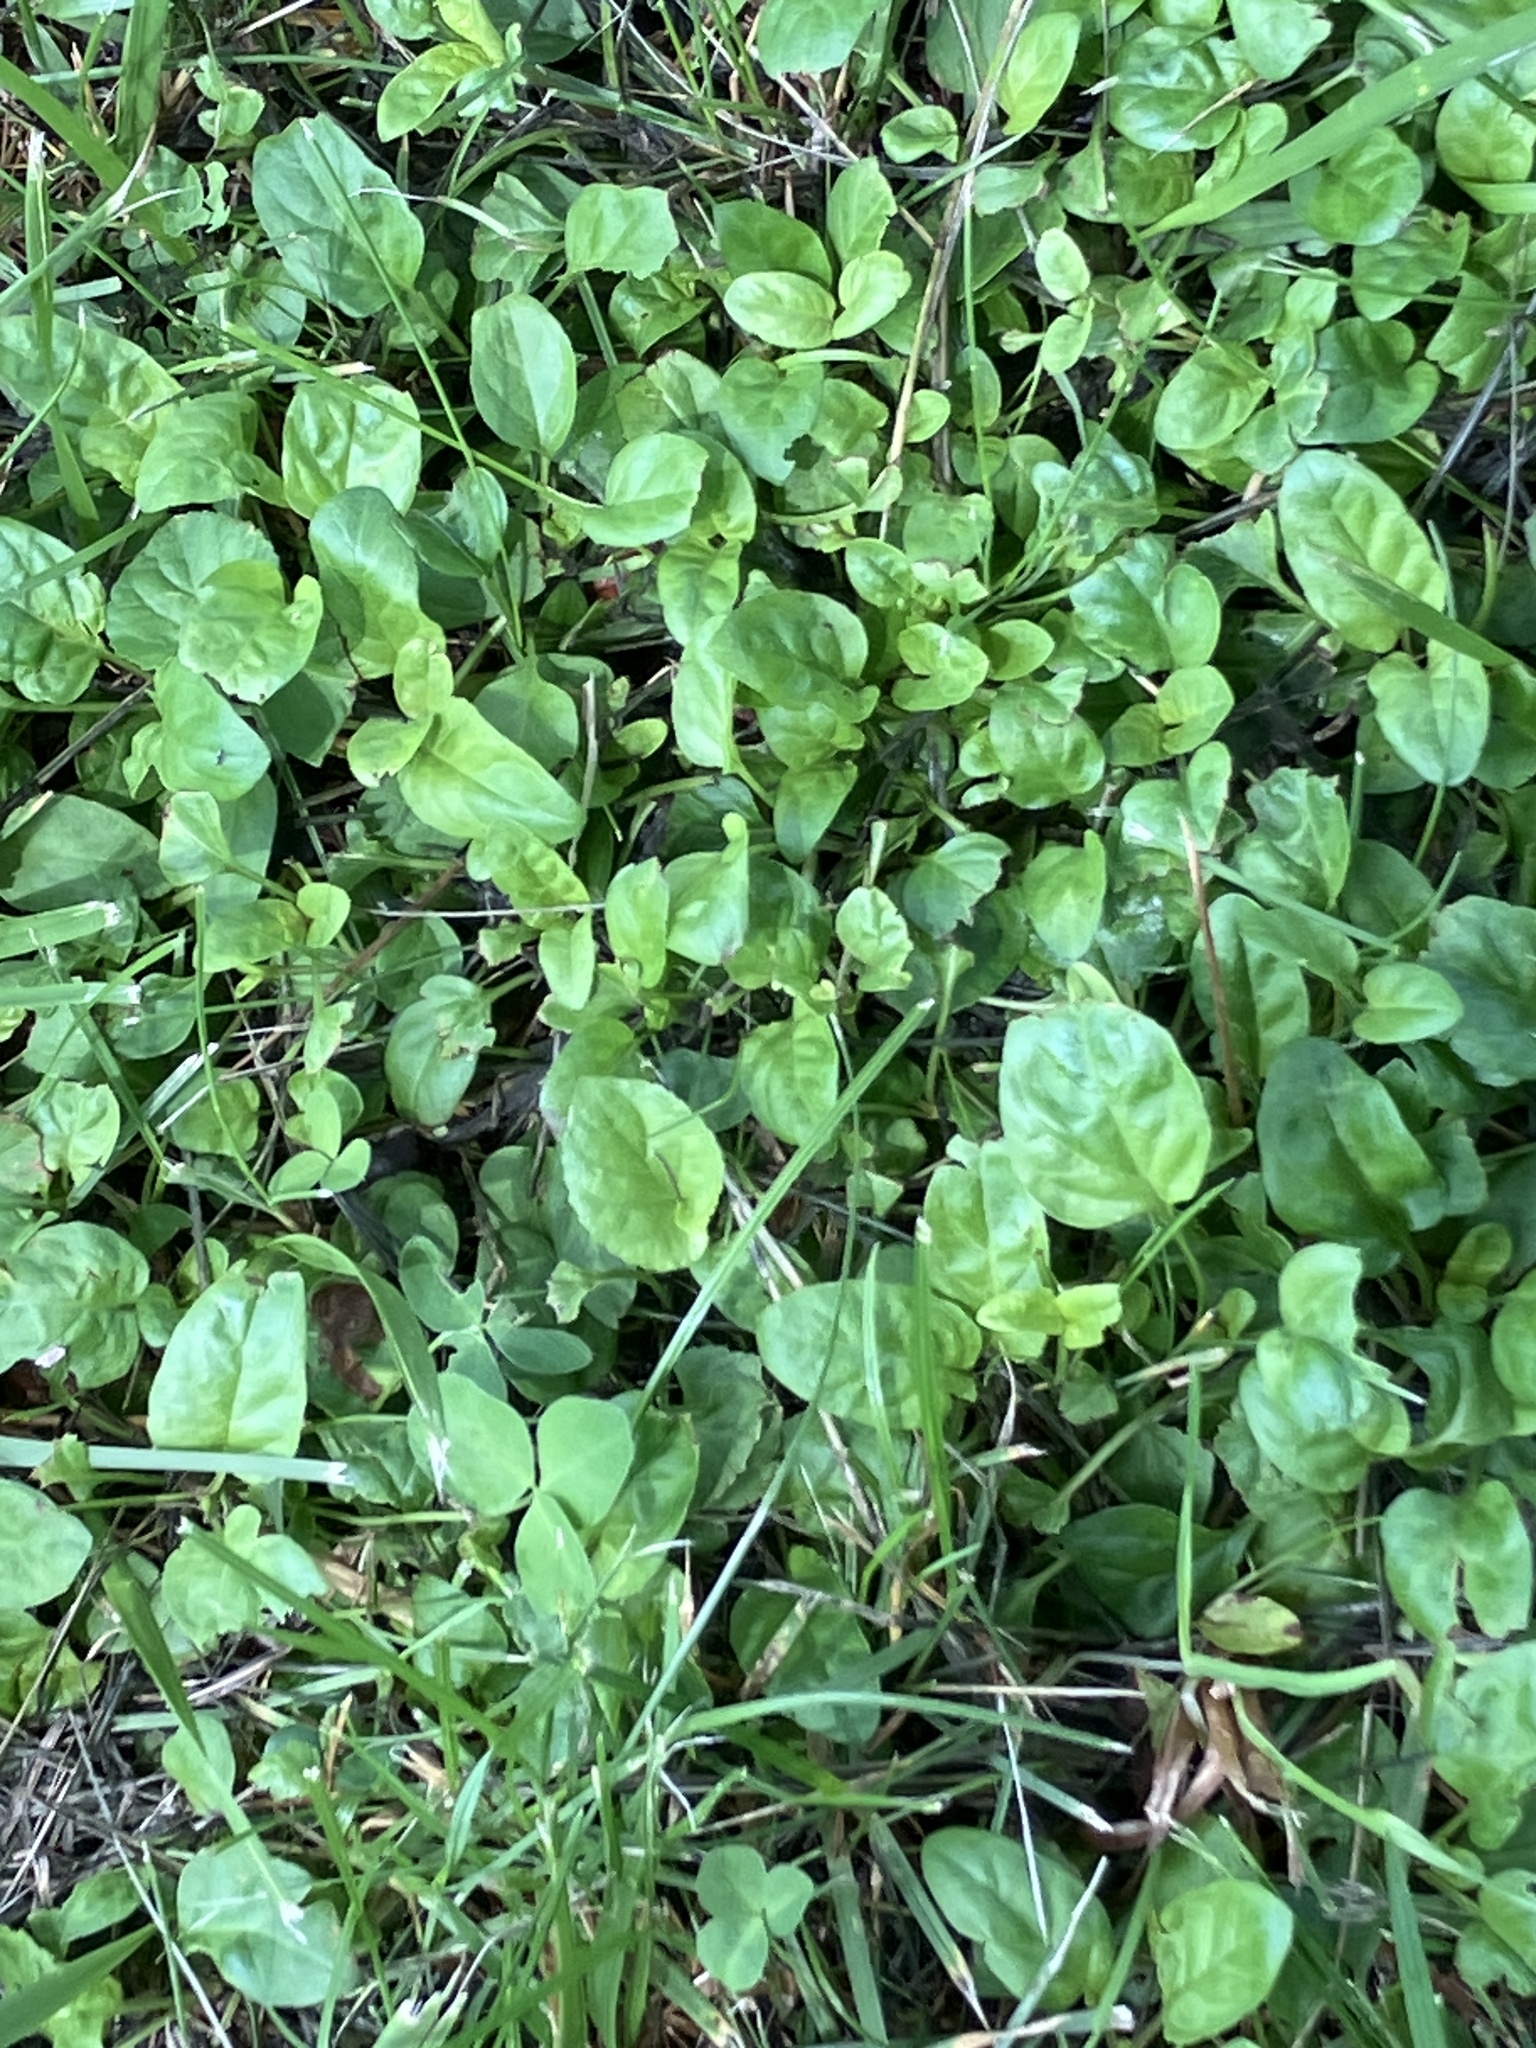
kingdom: Plantae
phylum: Tracheophyta
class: Magnoliopsida
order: Lamiales
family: Lamiaceae
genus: Prunella
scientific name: Prunella vulgaris
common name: Heal-all
